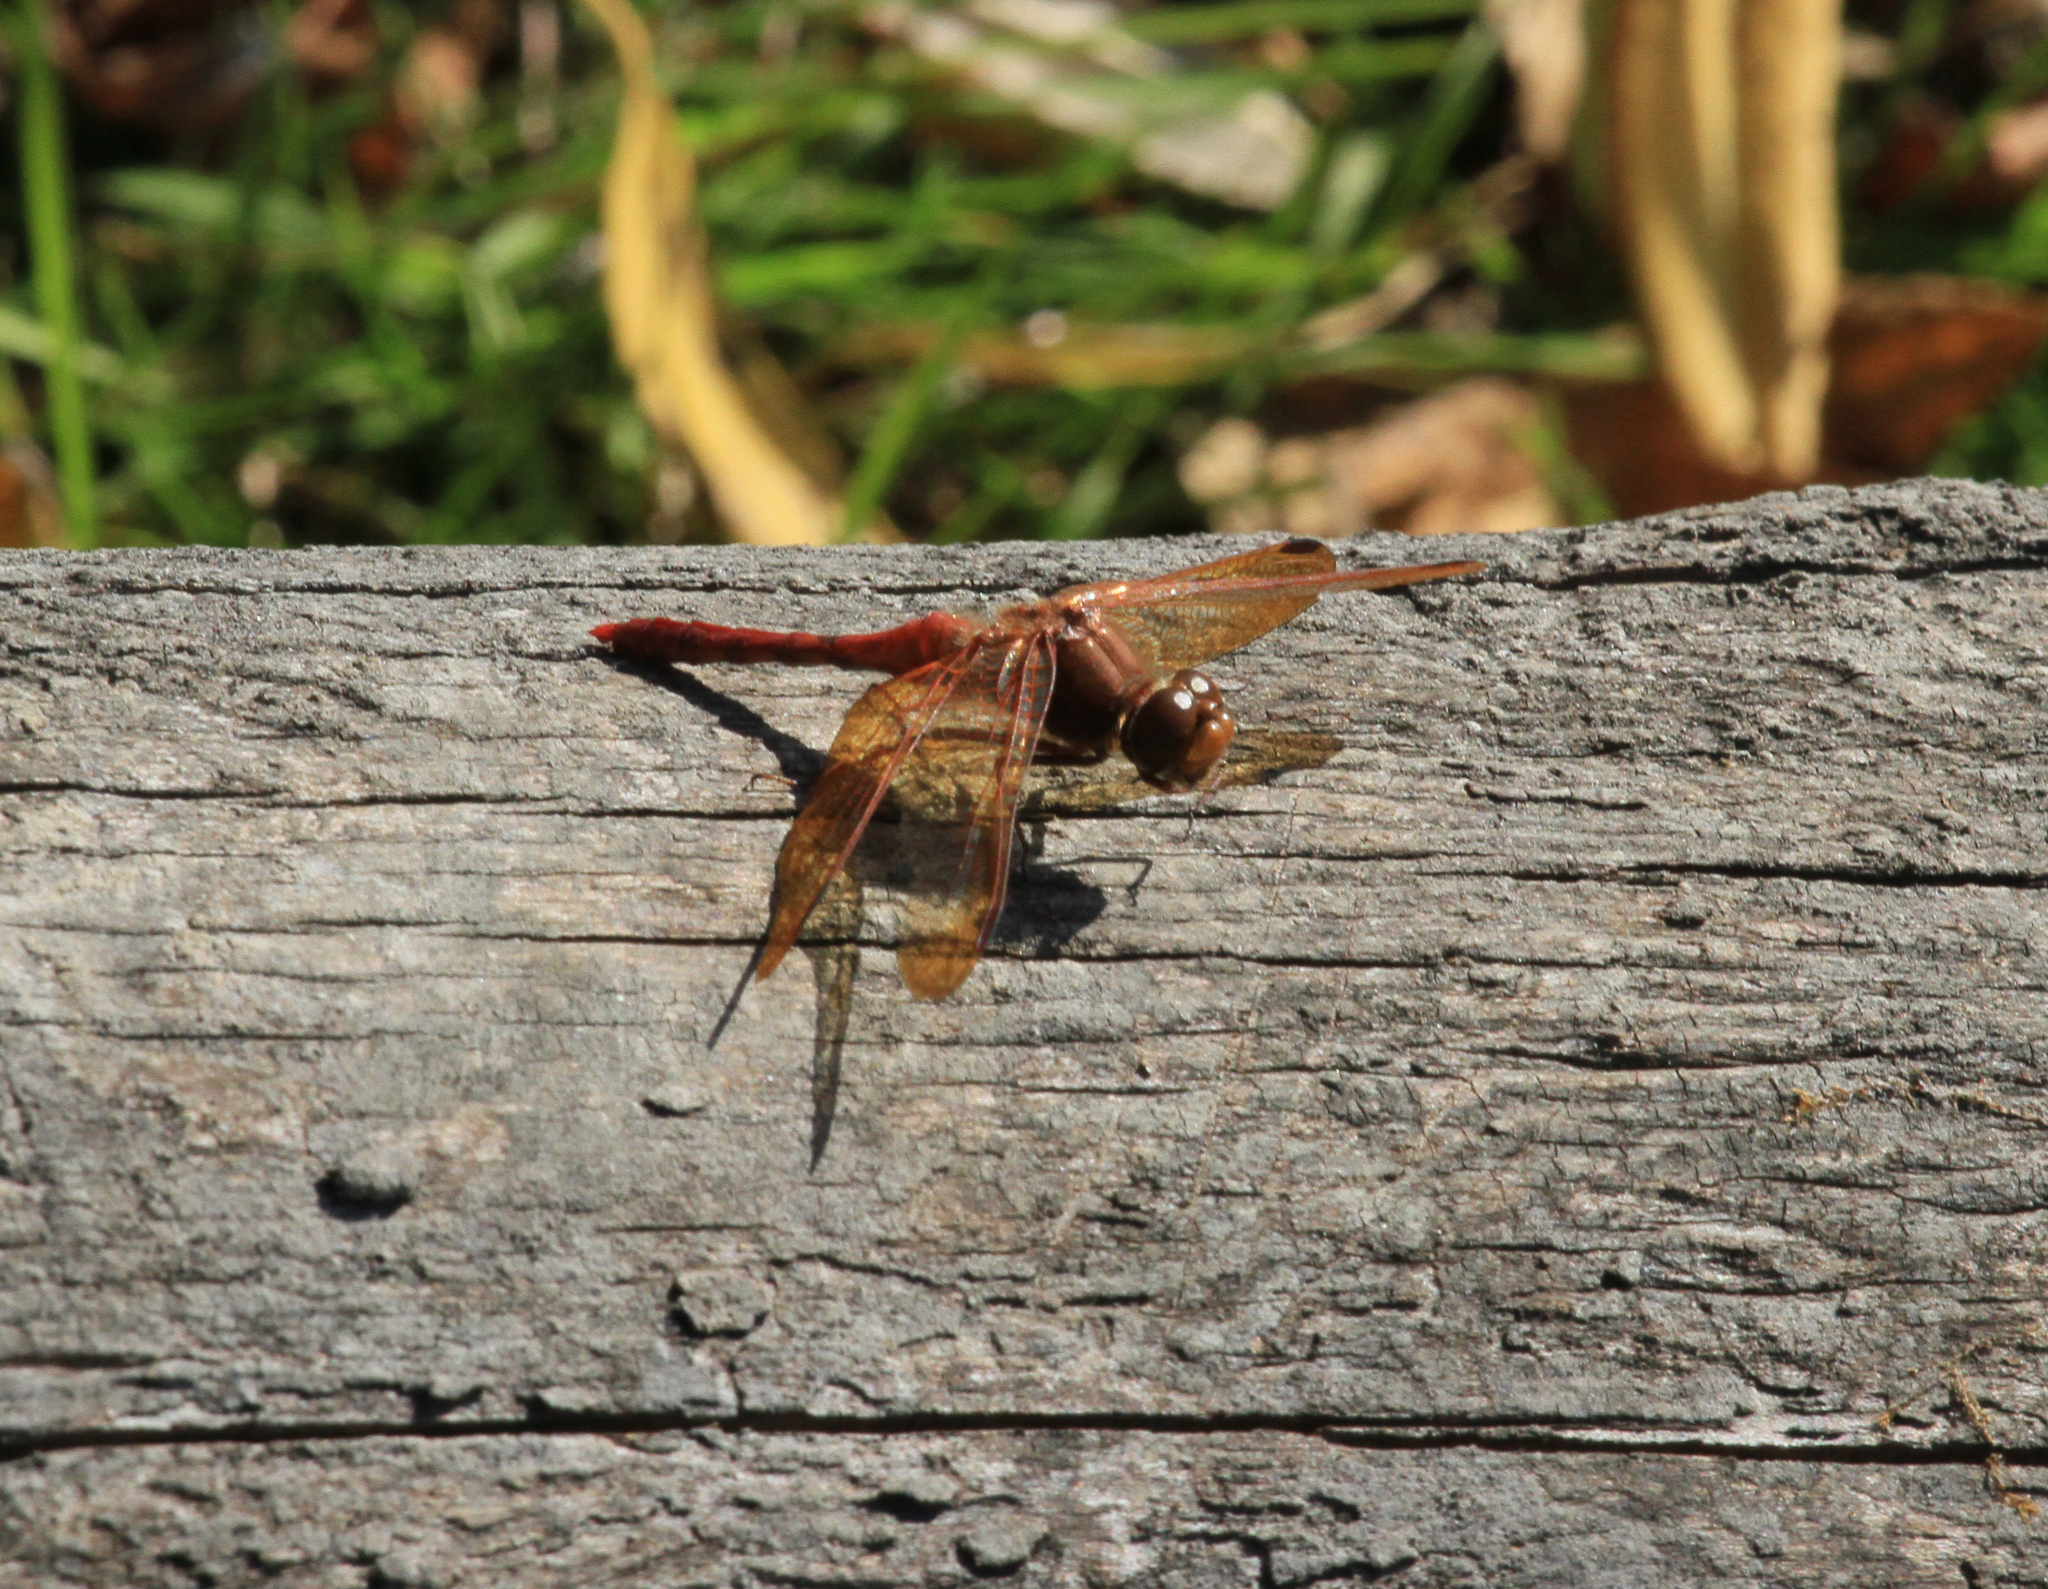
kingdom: Animalia
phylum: Arthropoda
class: Insecta
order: Odonata
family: Libellulidae
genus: Sympetrum
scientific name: Sympetrum croceolum
